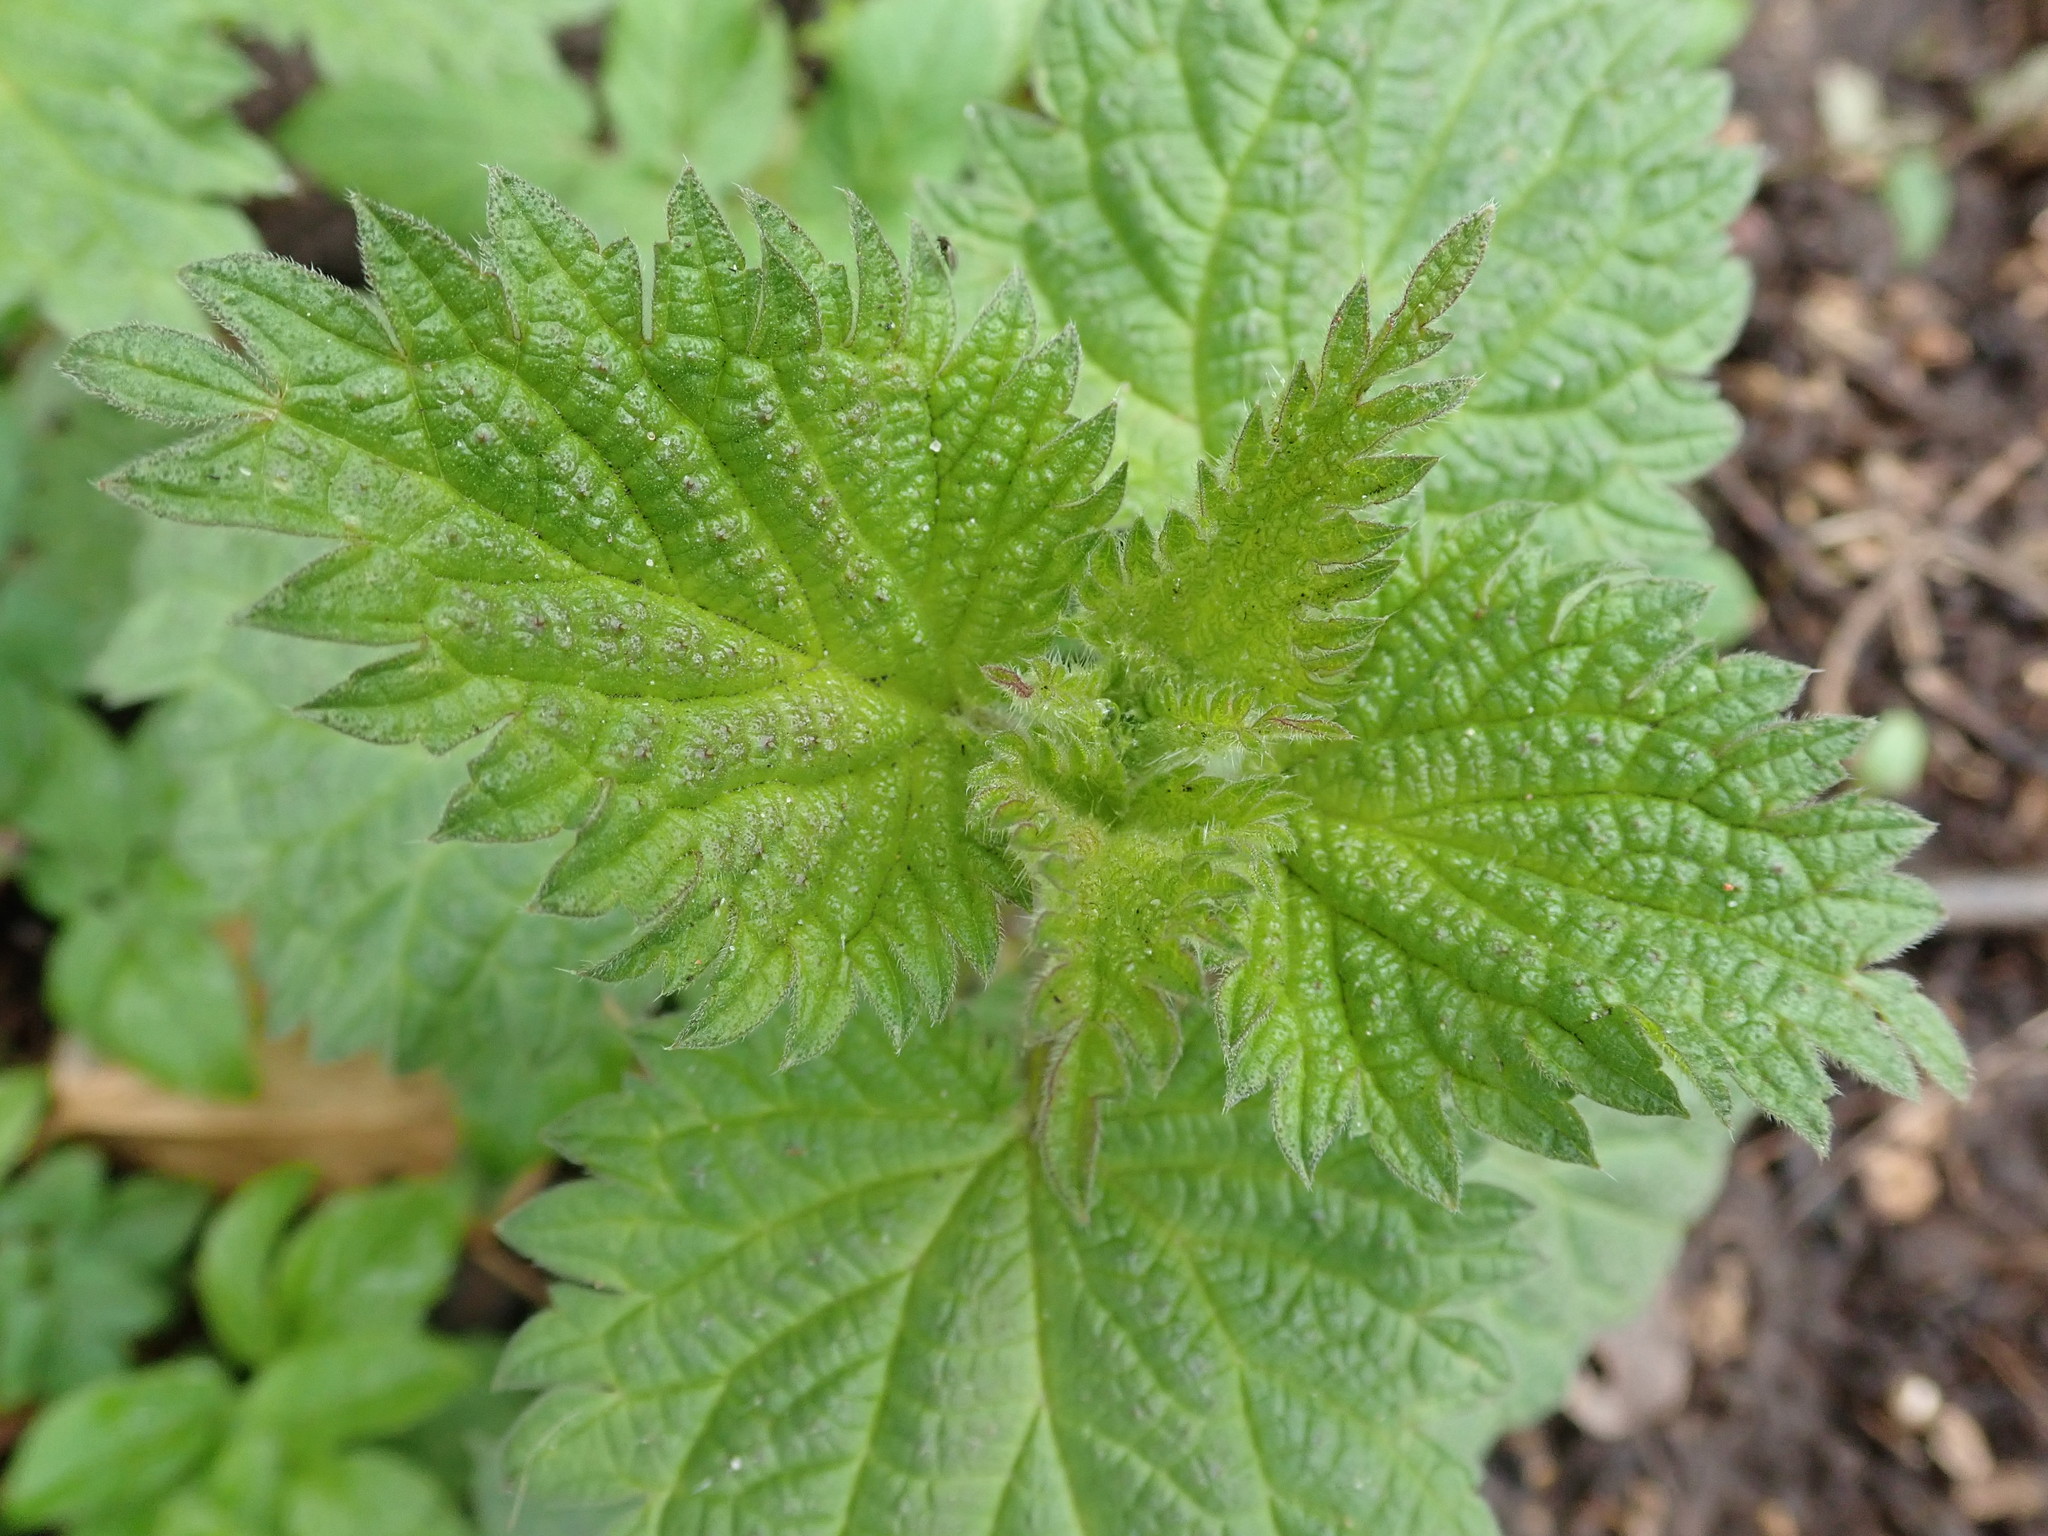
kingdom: Plantae
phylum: Tracheophyta
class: Magnoliopsida
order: Rosales
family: Urticaceae
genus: Urtica
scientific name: Urtica dioica
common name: Common nettle
